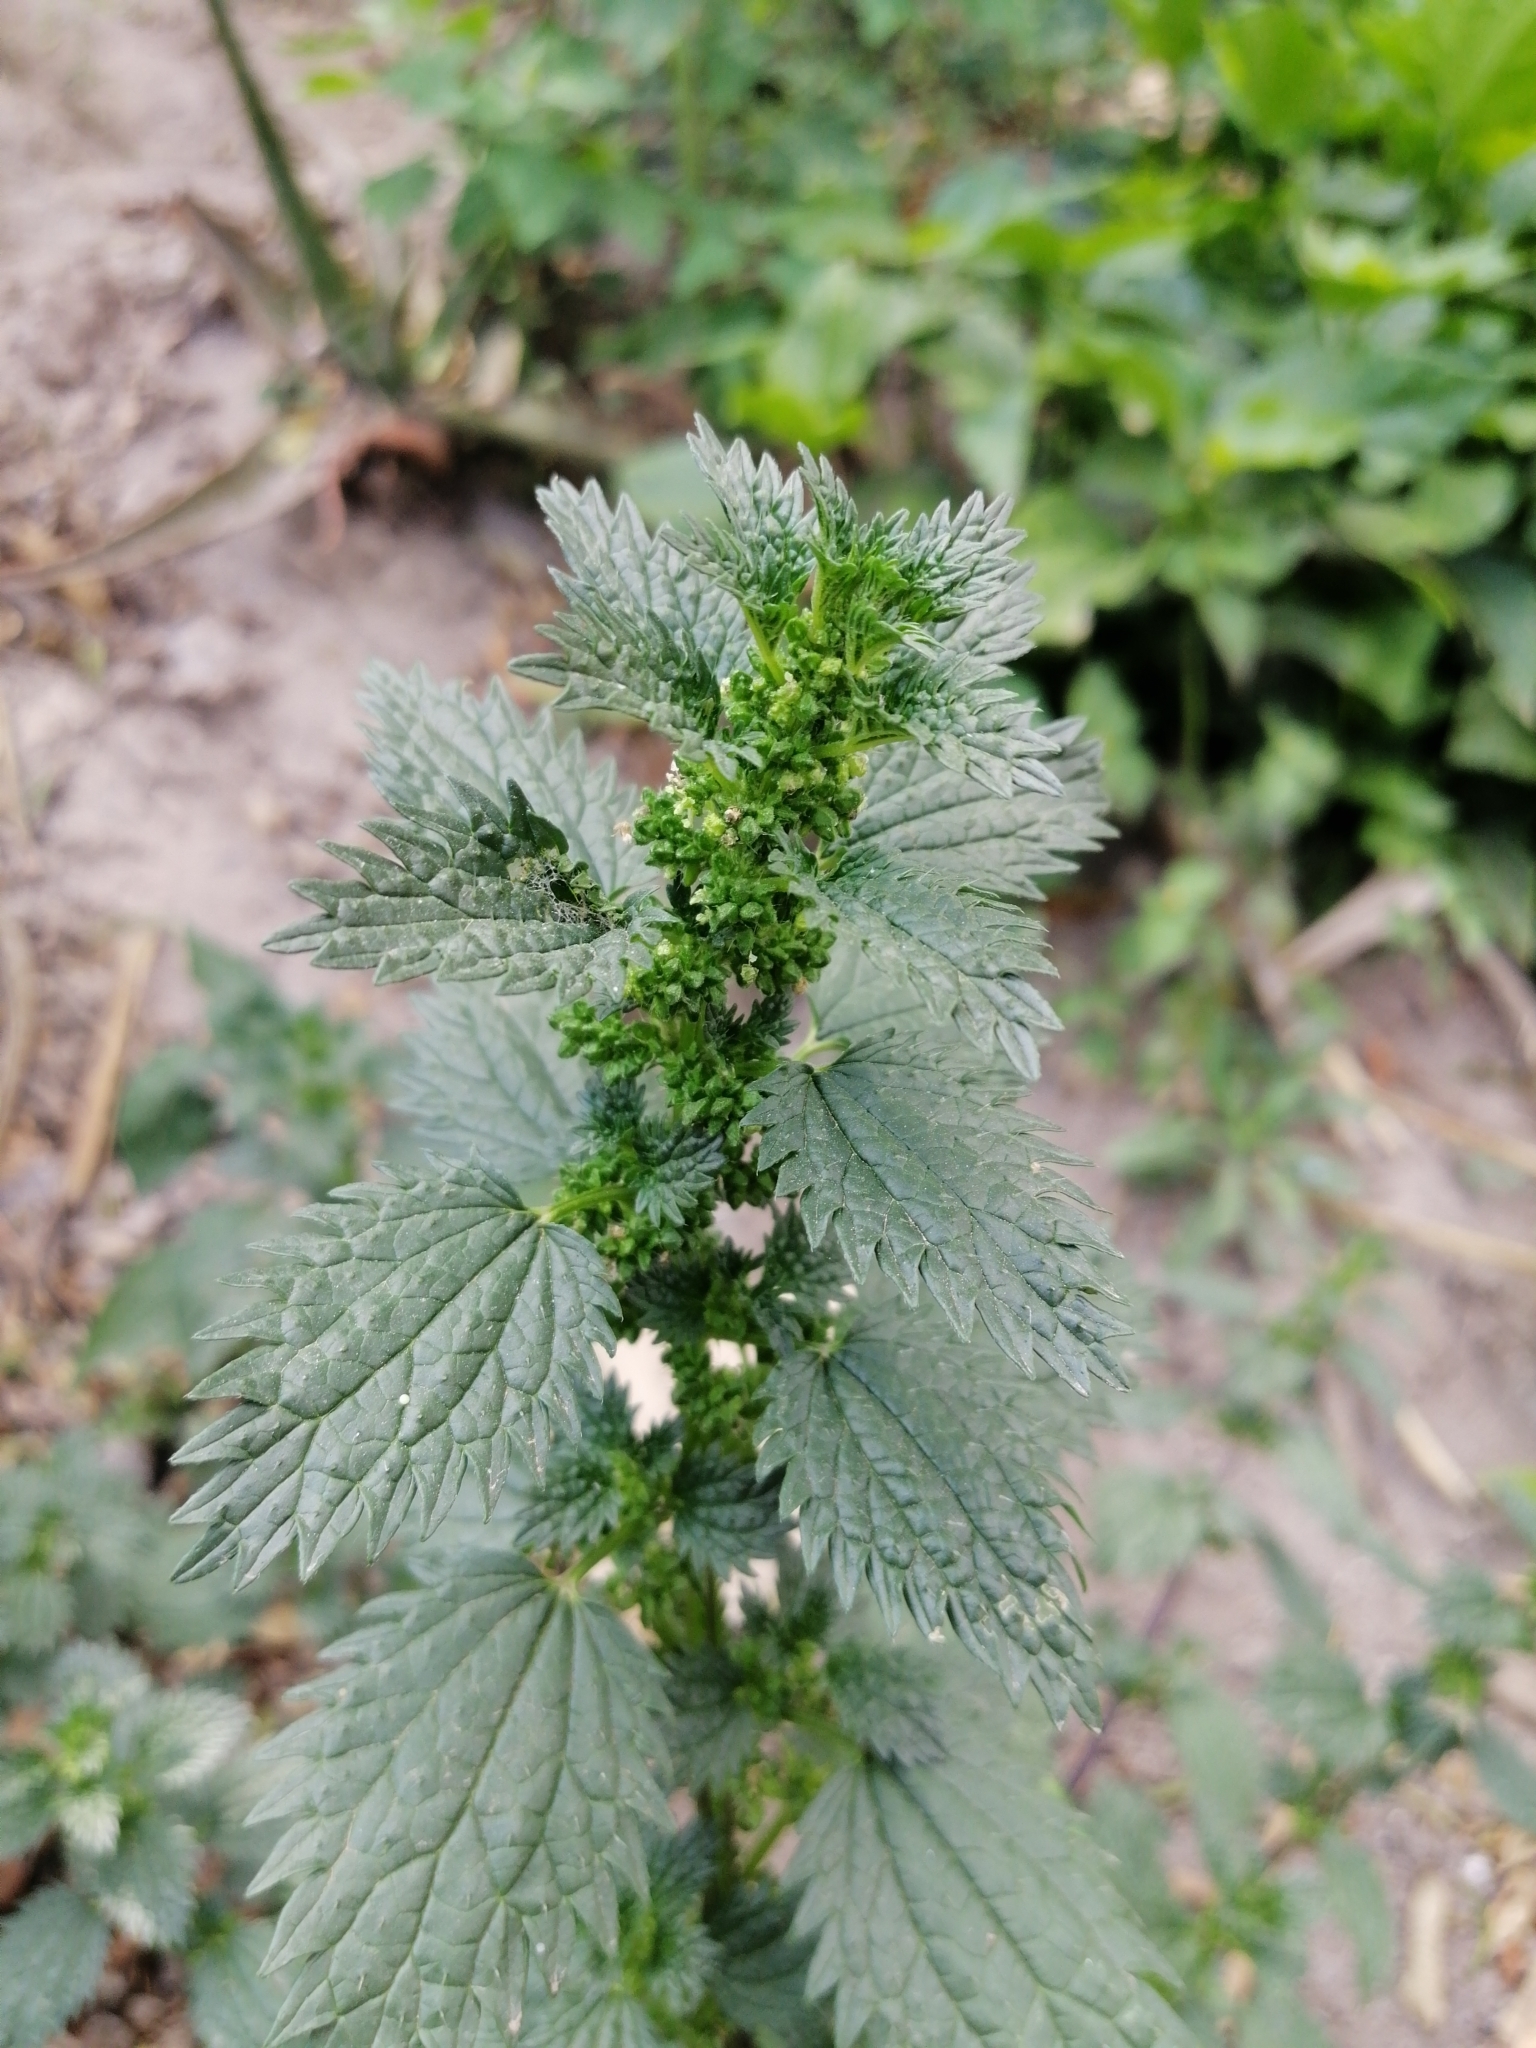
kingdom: Plantae
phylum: Tracheophyta
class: Magnoliopsida
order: Rosales
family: Urticaceae
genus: Urtica
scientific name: Urtica urens
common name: Dwarf nettle
